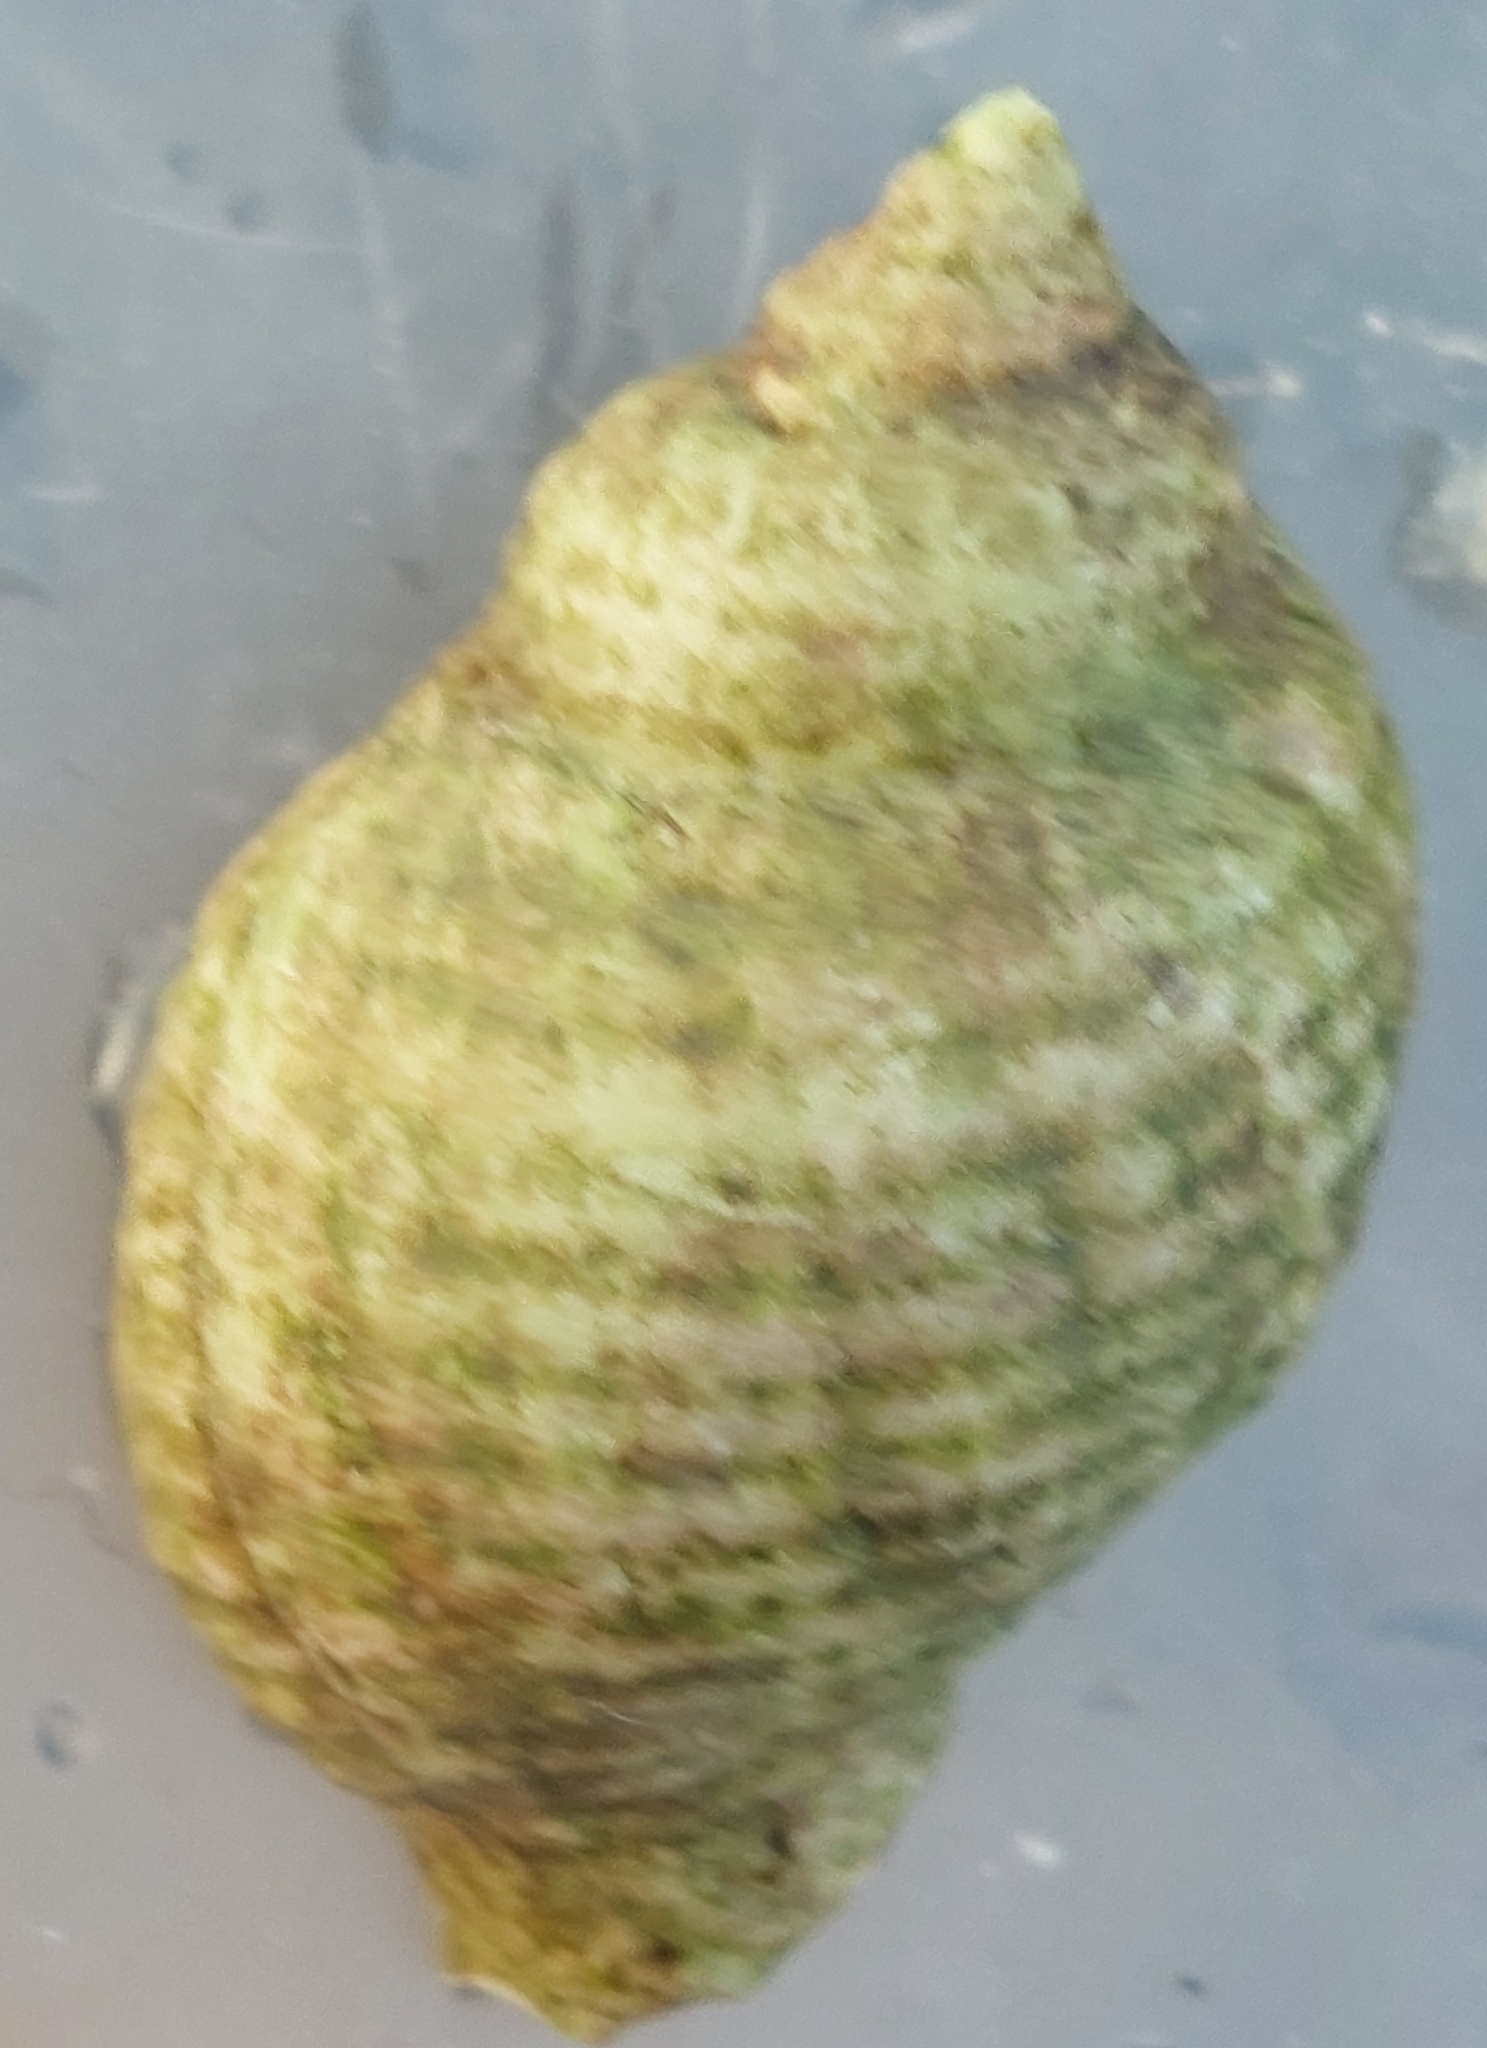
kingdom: Animalia
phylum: Mollusca
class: Gastropoda
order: Neogastropoda
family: Muricidae
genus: Nucella
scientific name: Nucella lapillus
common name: Dog whelk
